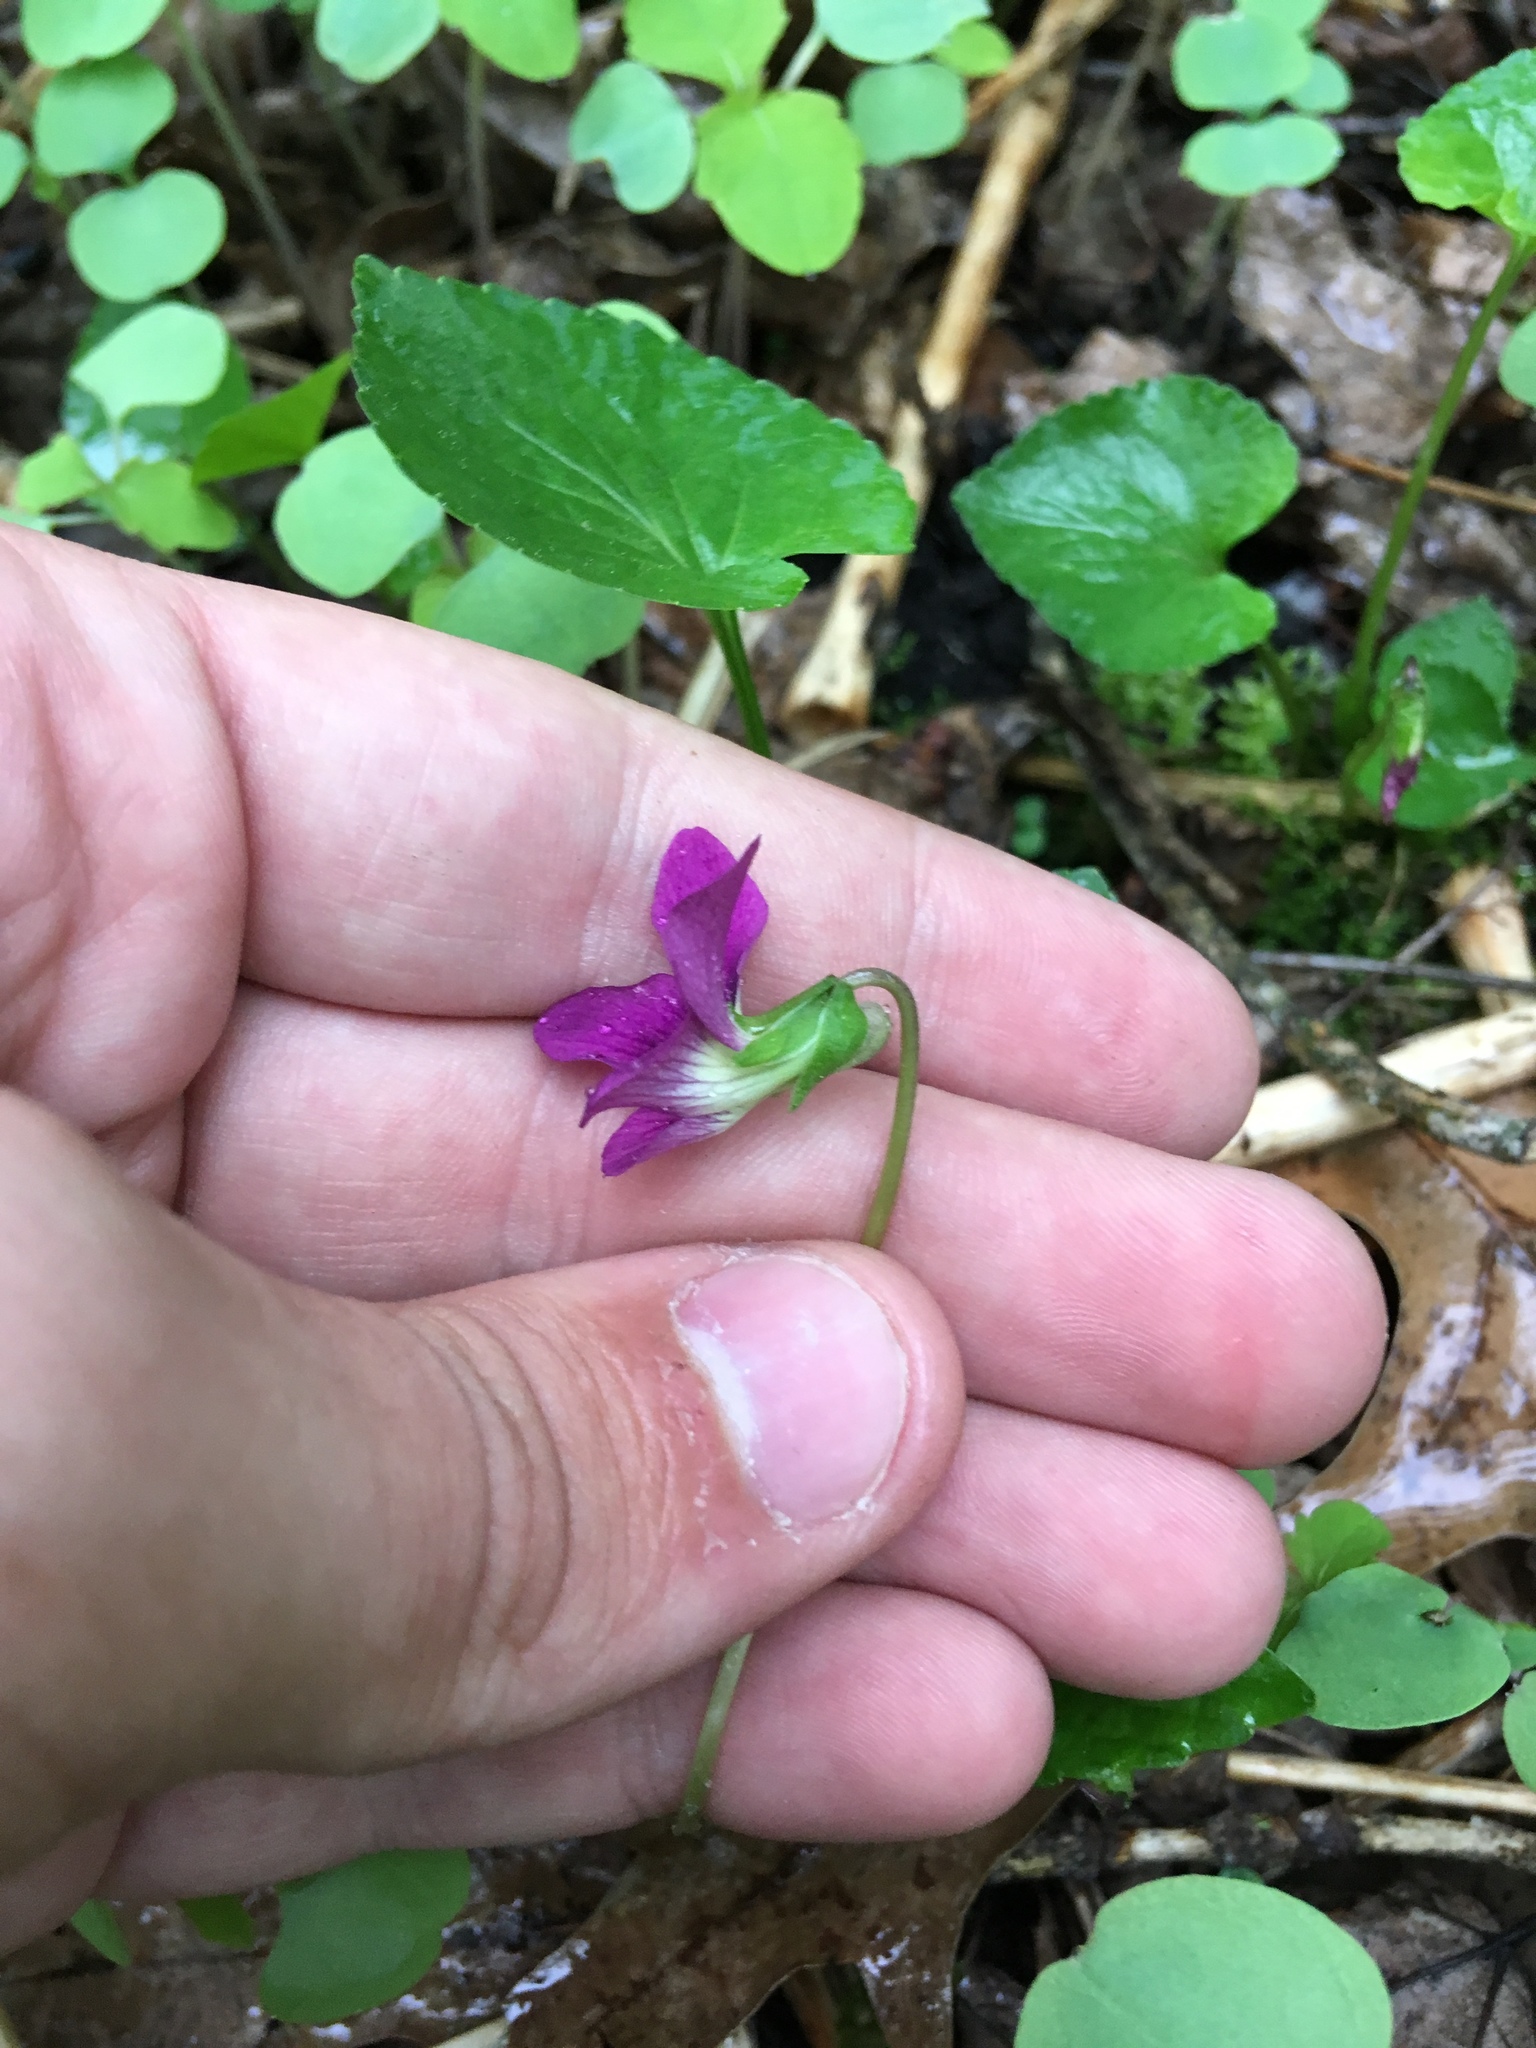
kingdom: Plantae
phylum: Tracheophyta
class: Magnoliopsida
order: Malpighiales
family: Violaceae
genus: Viola
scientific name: Viola sororia
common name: Dooryard violet
